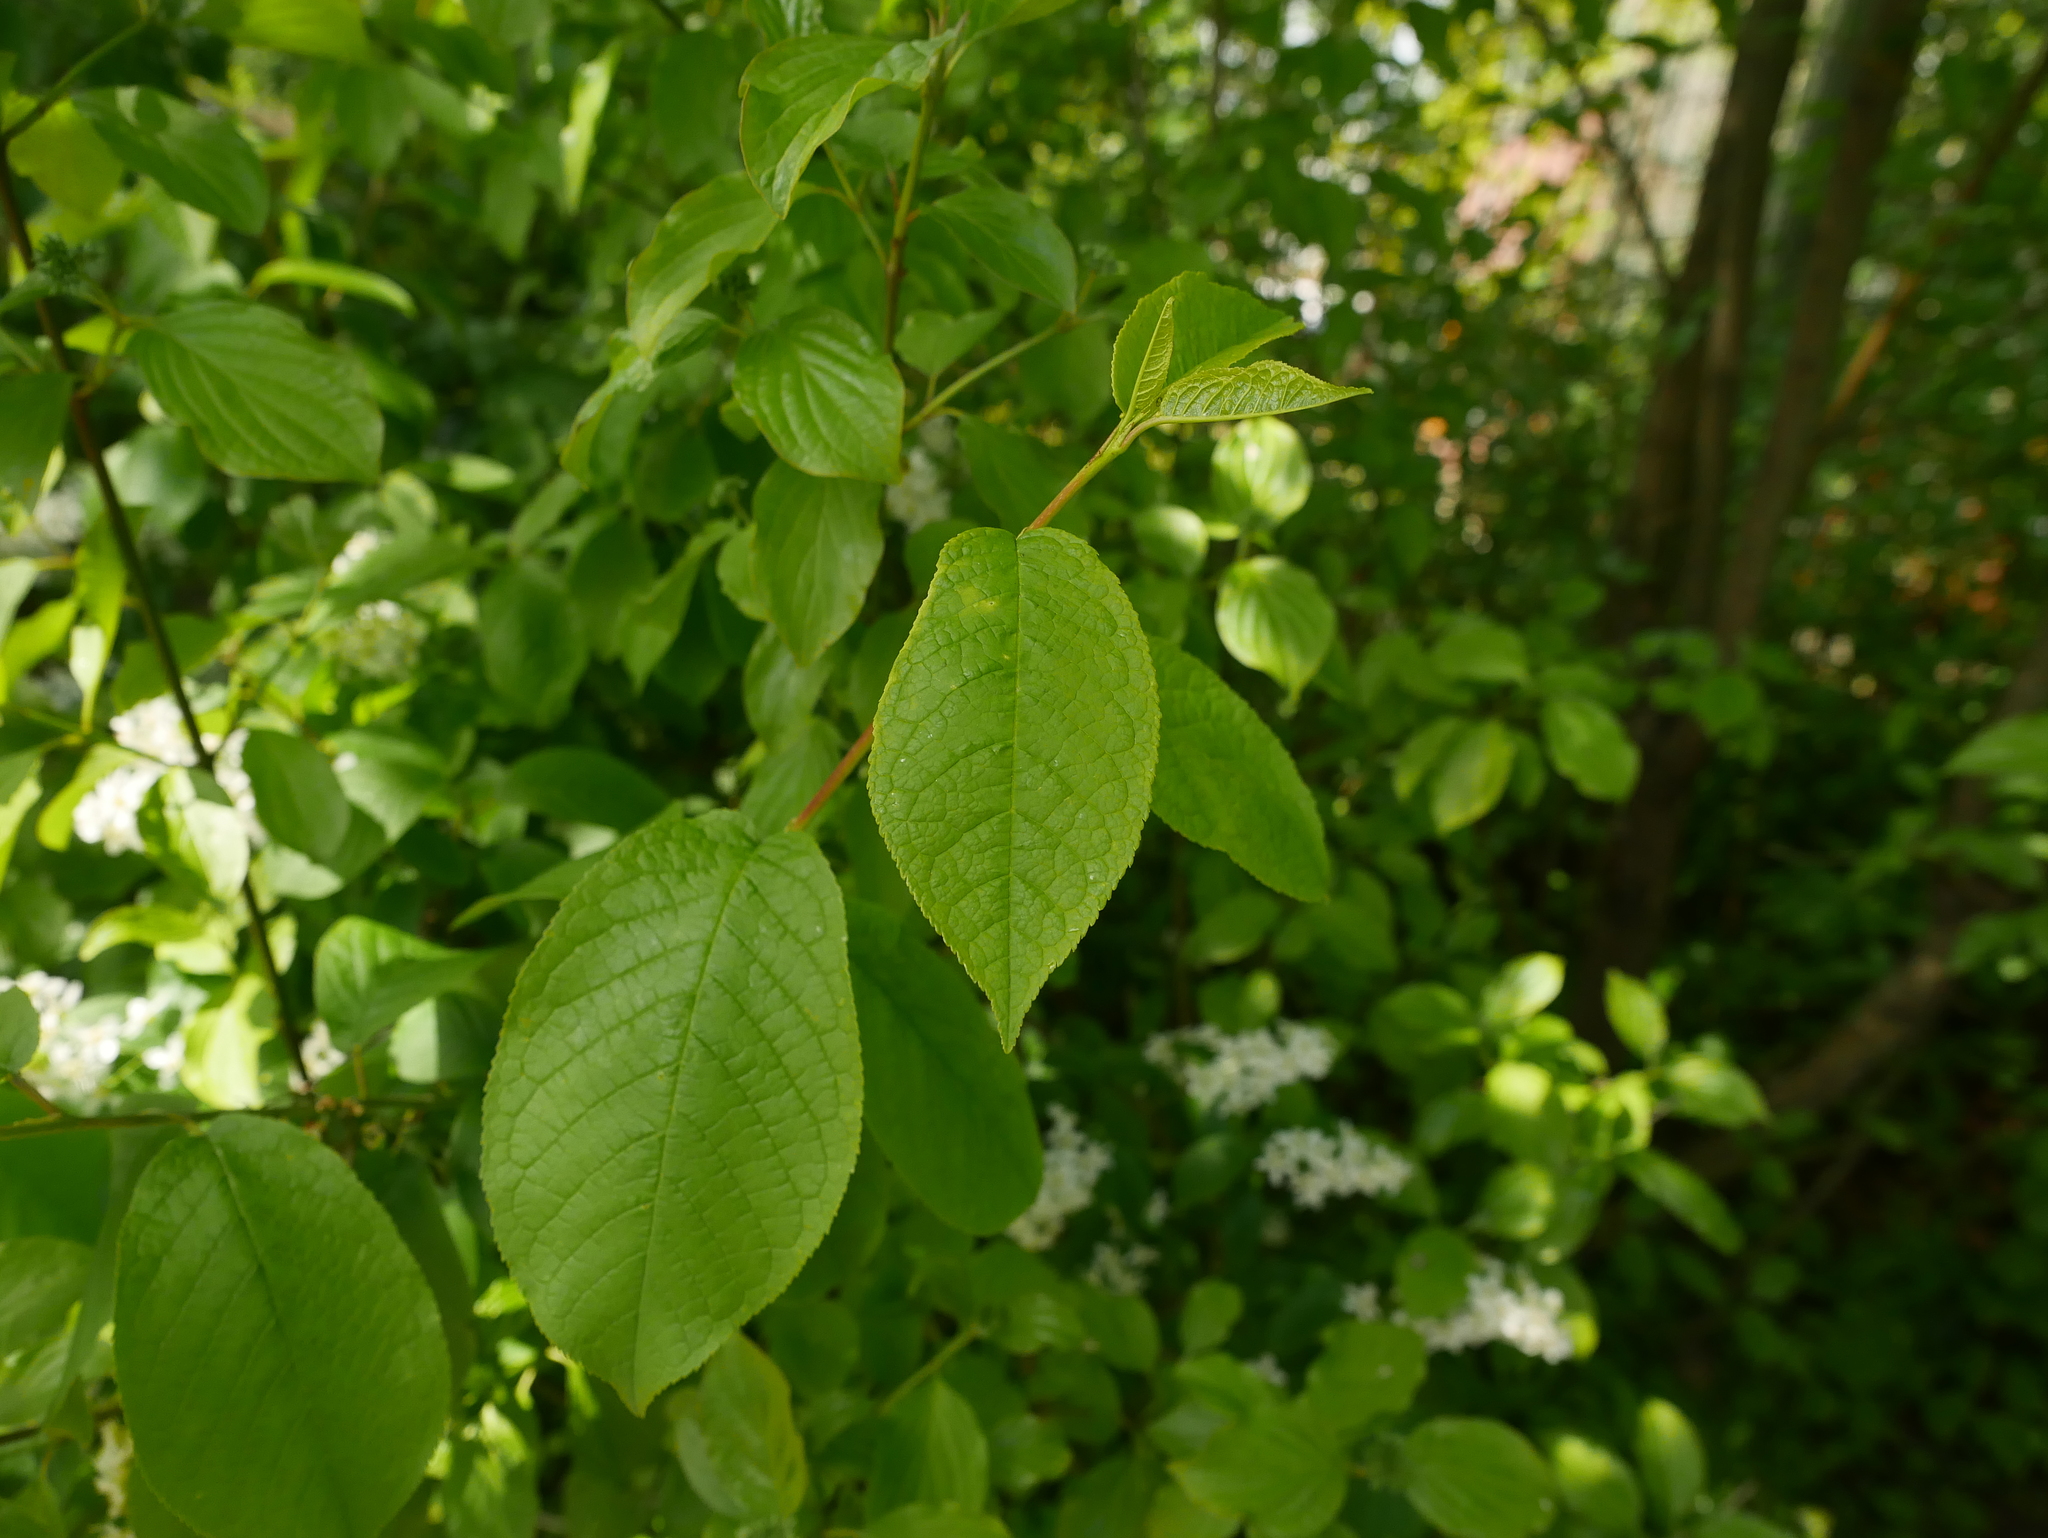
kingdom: Plantae
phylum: Tracheophyta
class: Magnoliopsida
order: Rosales
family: Rosaceae
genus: Prunus
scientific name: Prunus padus
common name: Bird cherry
